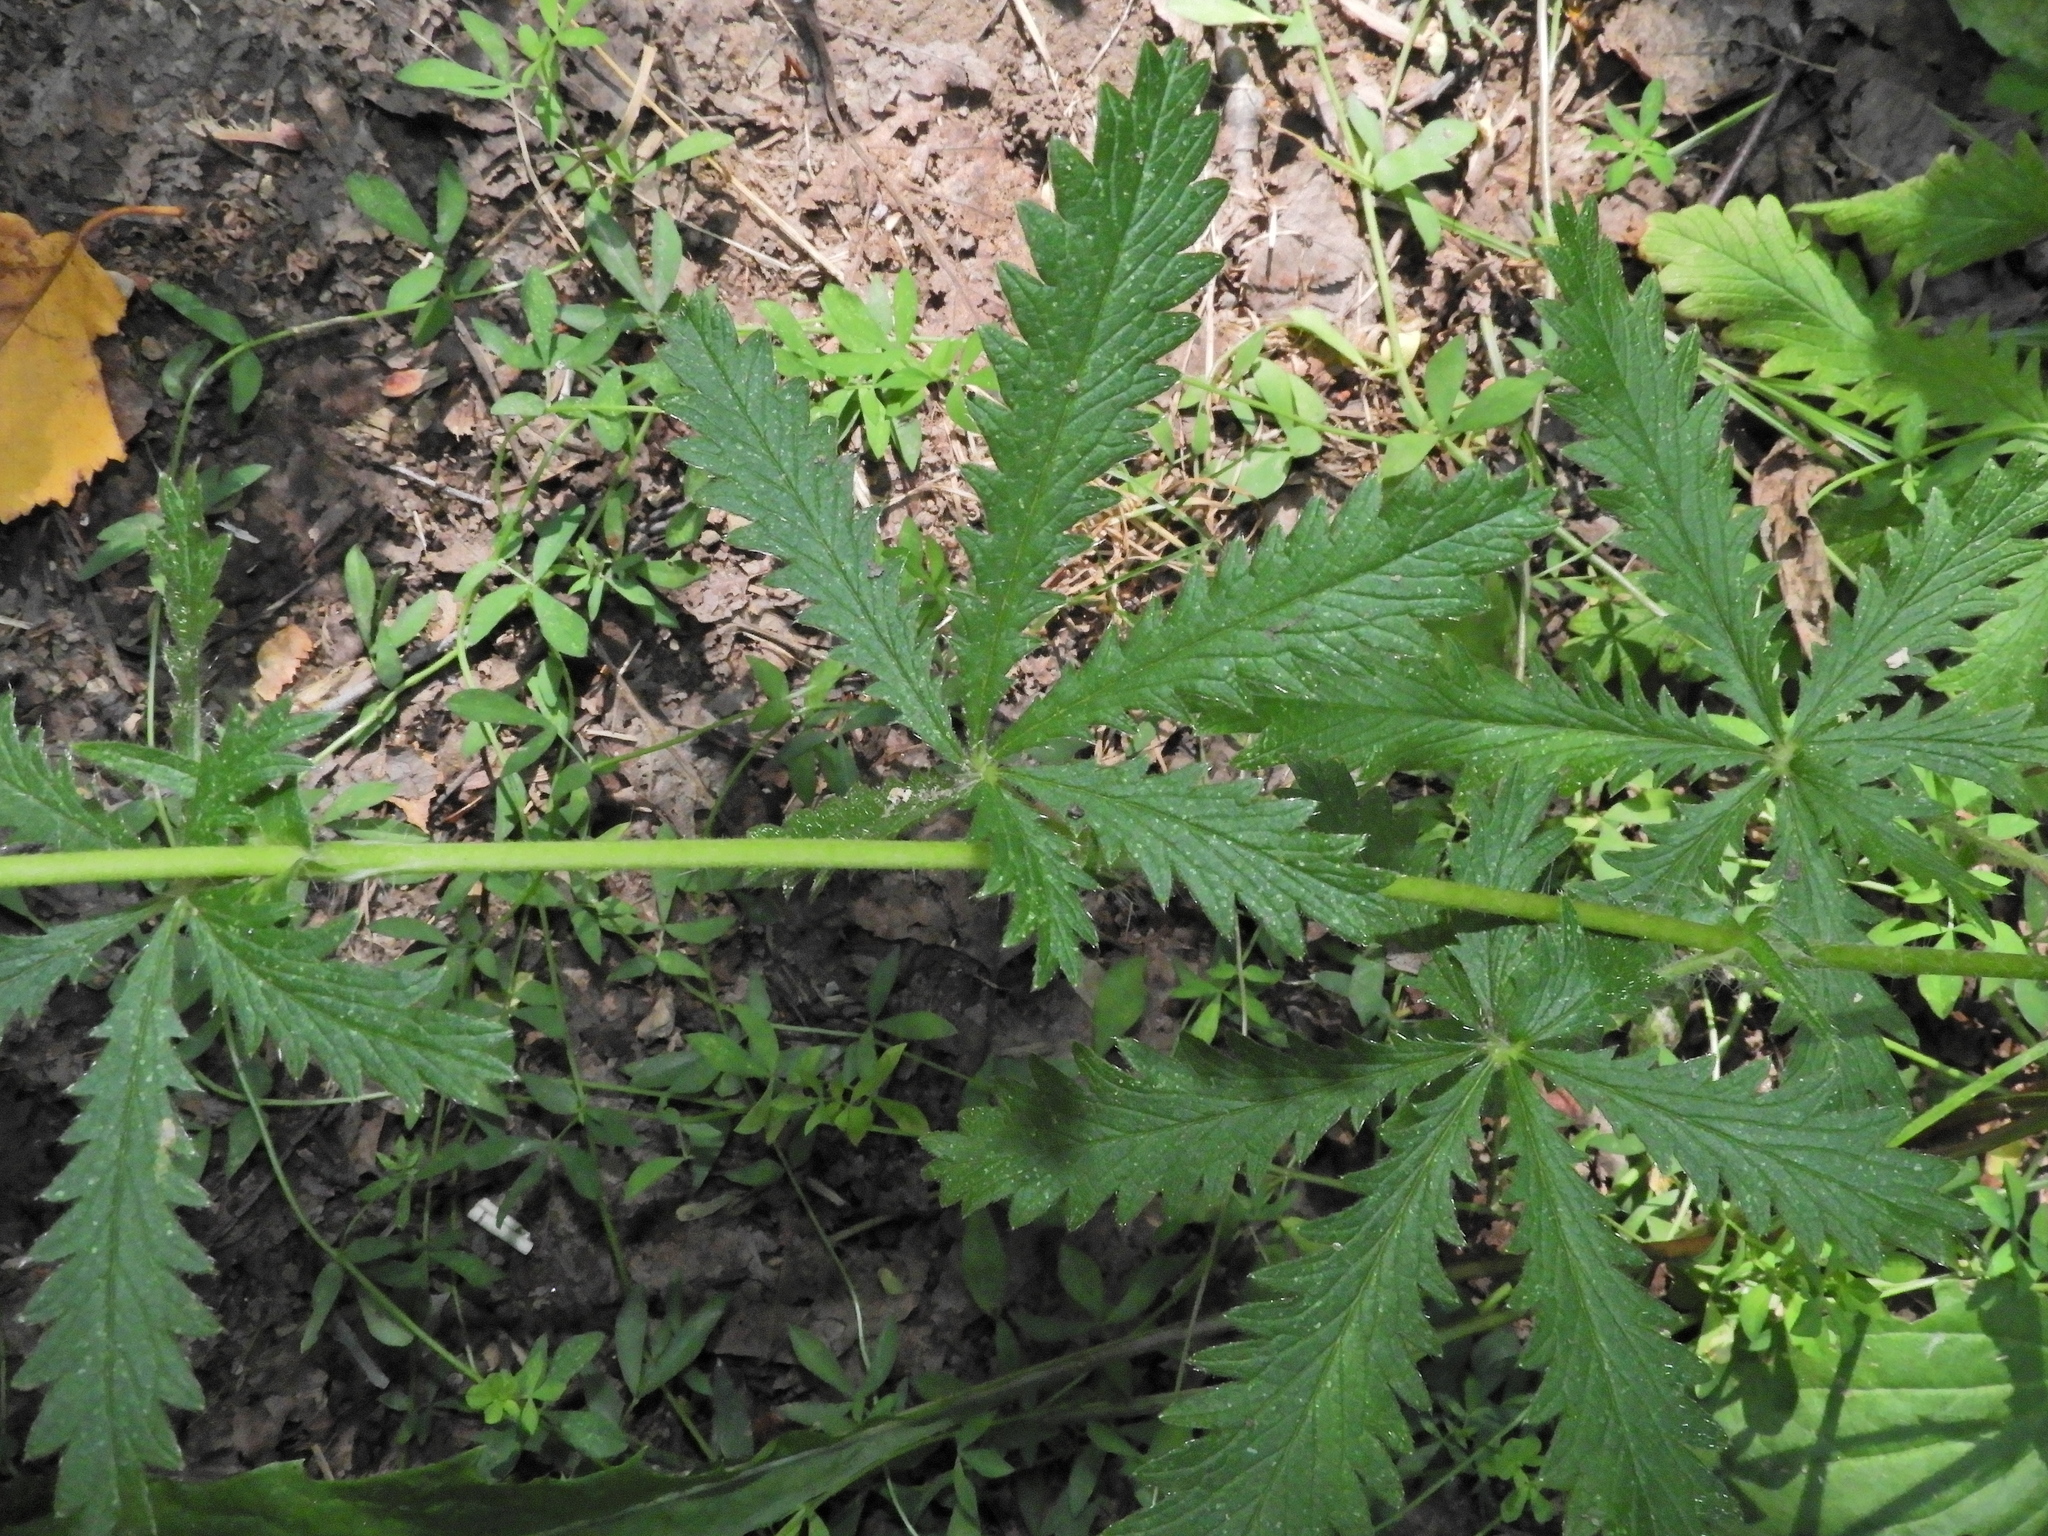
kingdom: Plantae
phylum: Tracheophyta
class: Magnoliopsida
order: Rosales
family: Rosaceae
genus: Potentilla
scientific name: Potentilla recta
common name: Sulphur cinquefoil
